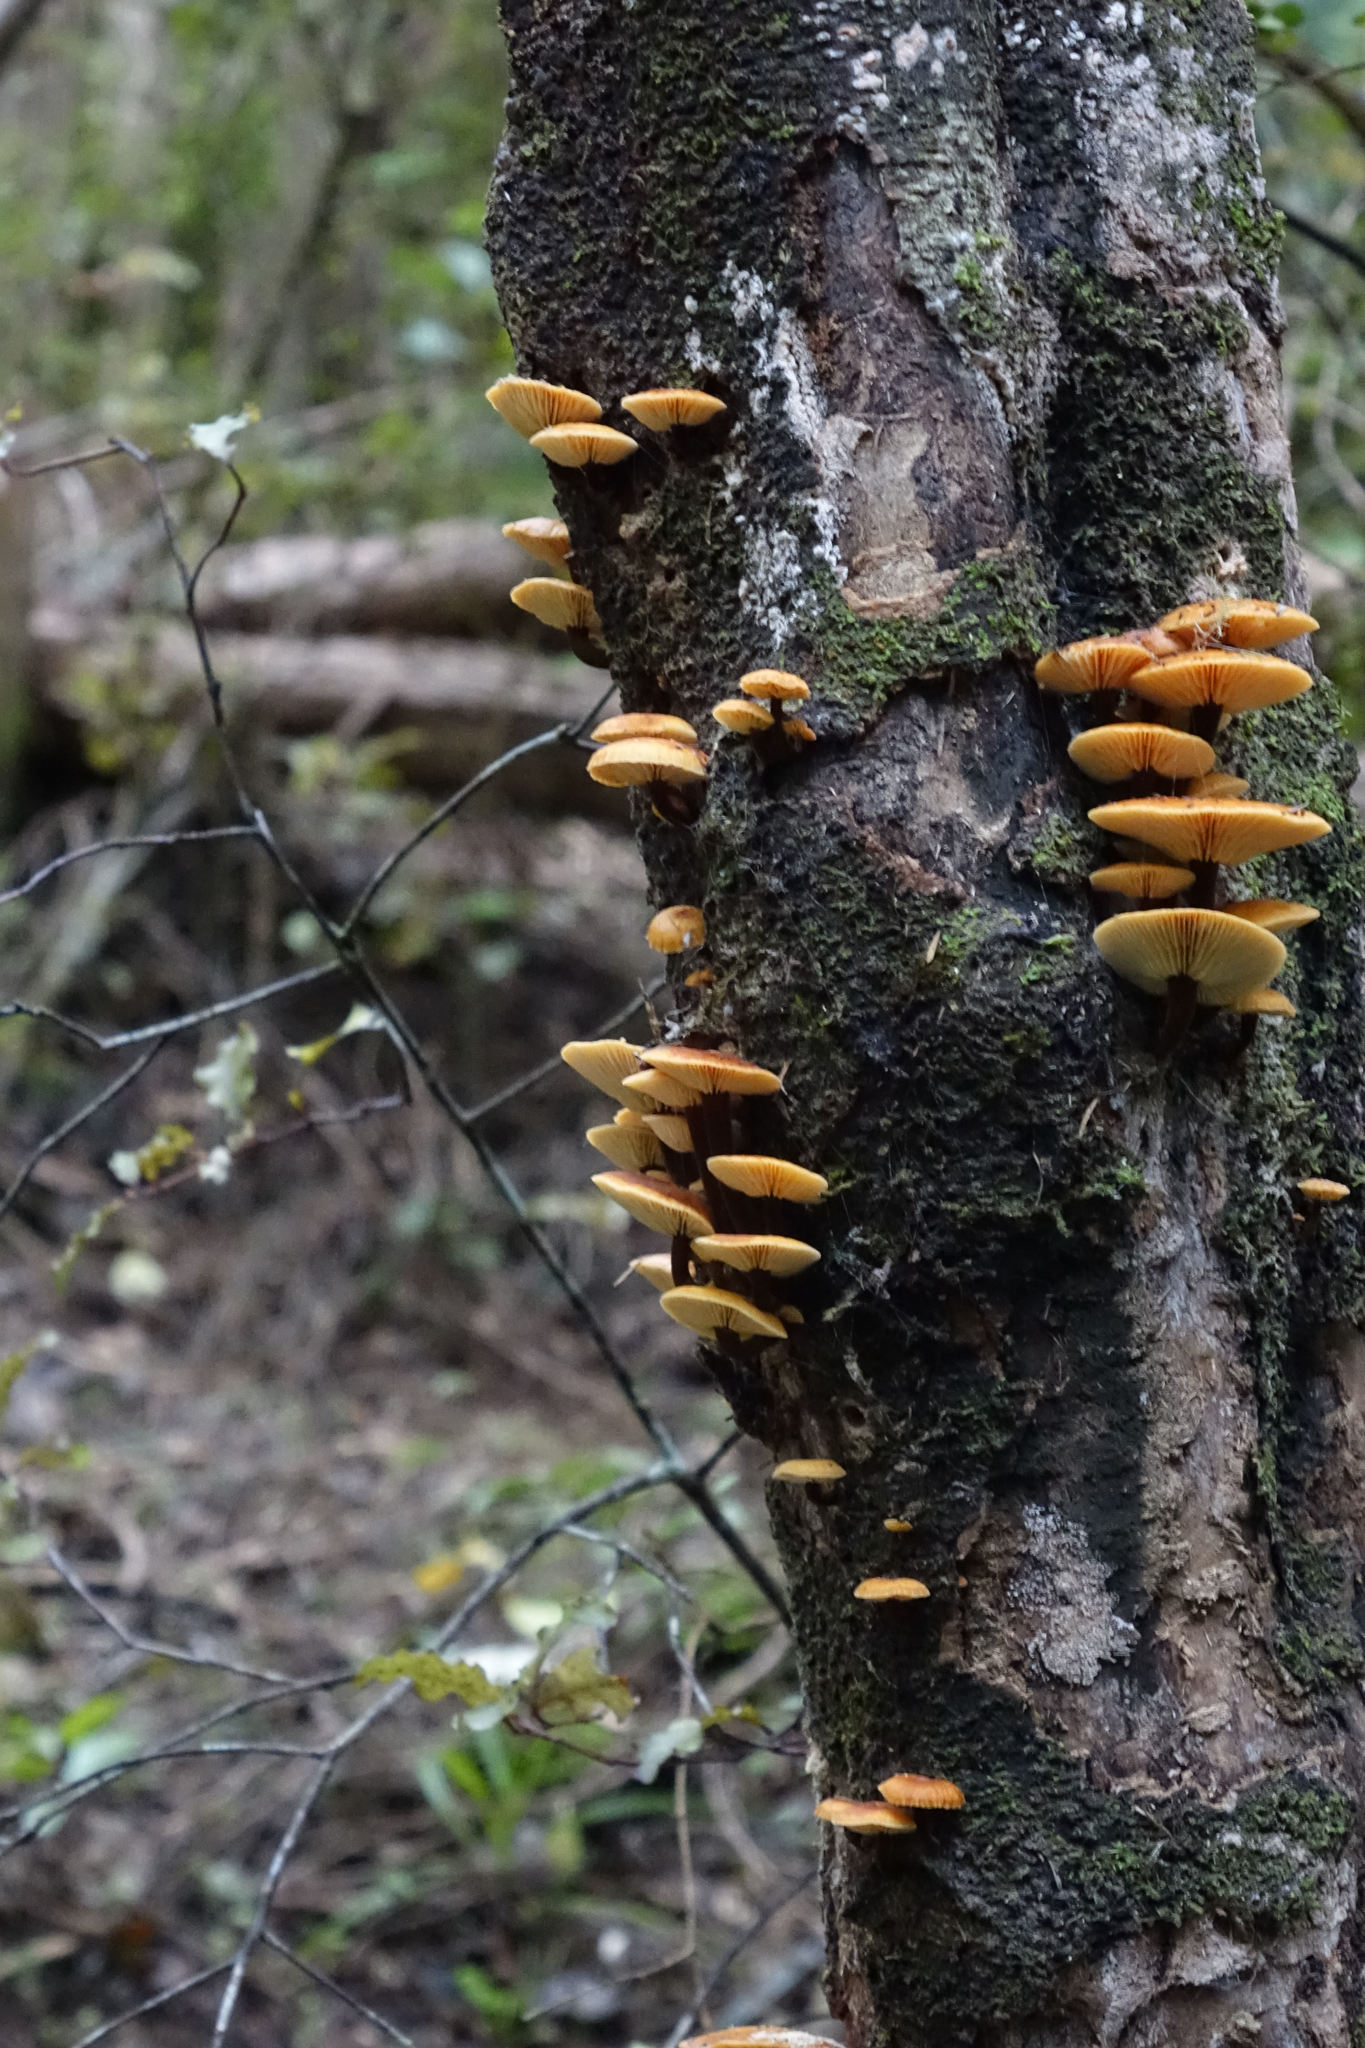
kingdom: Fungi
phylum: Basidiomycota
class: Agaricomycetes
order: Agaricales
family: Physalacriaceae
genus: Flammulina
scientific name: Flammulina velutipes
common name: Velvet shank
